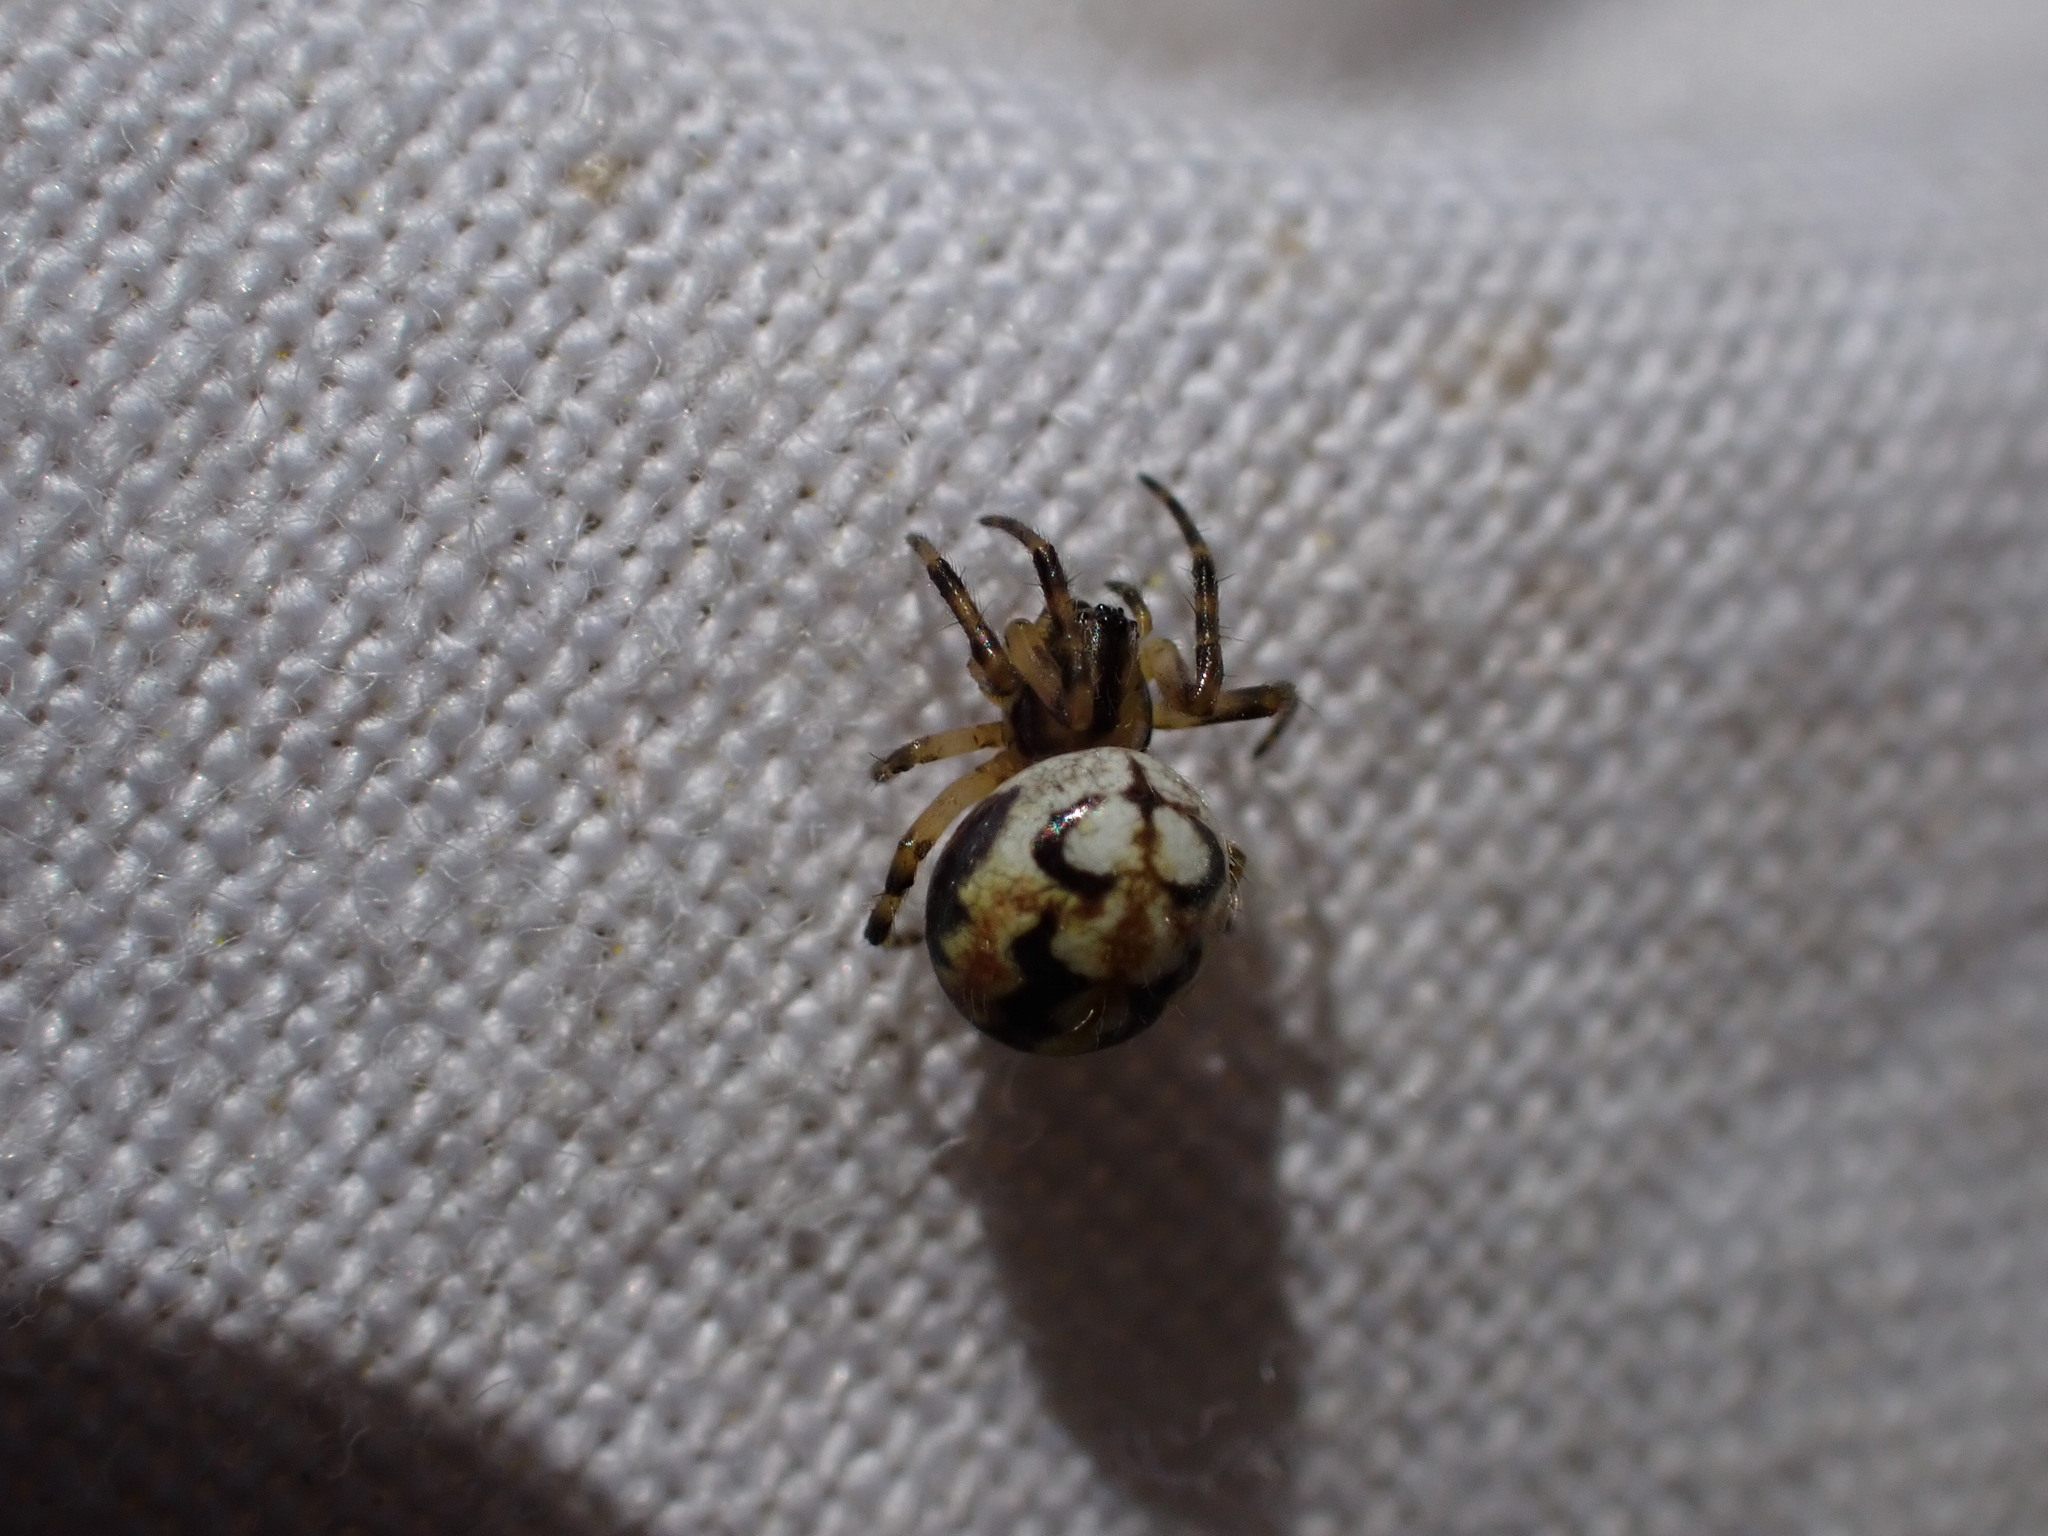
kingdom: Animalia
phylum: Arthropoda
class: Arachnida
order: Araneae
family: Araneidae
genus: Neoscona
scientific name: Neoscona adianta
